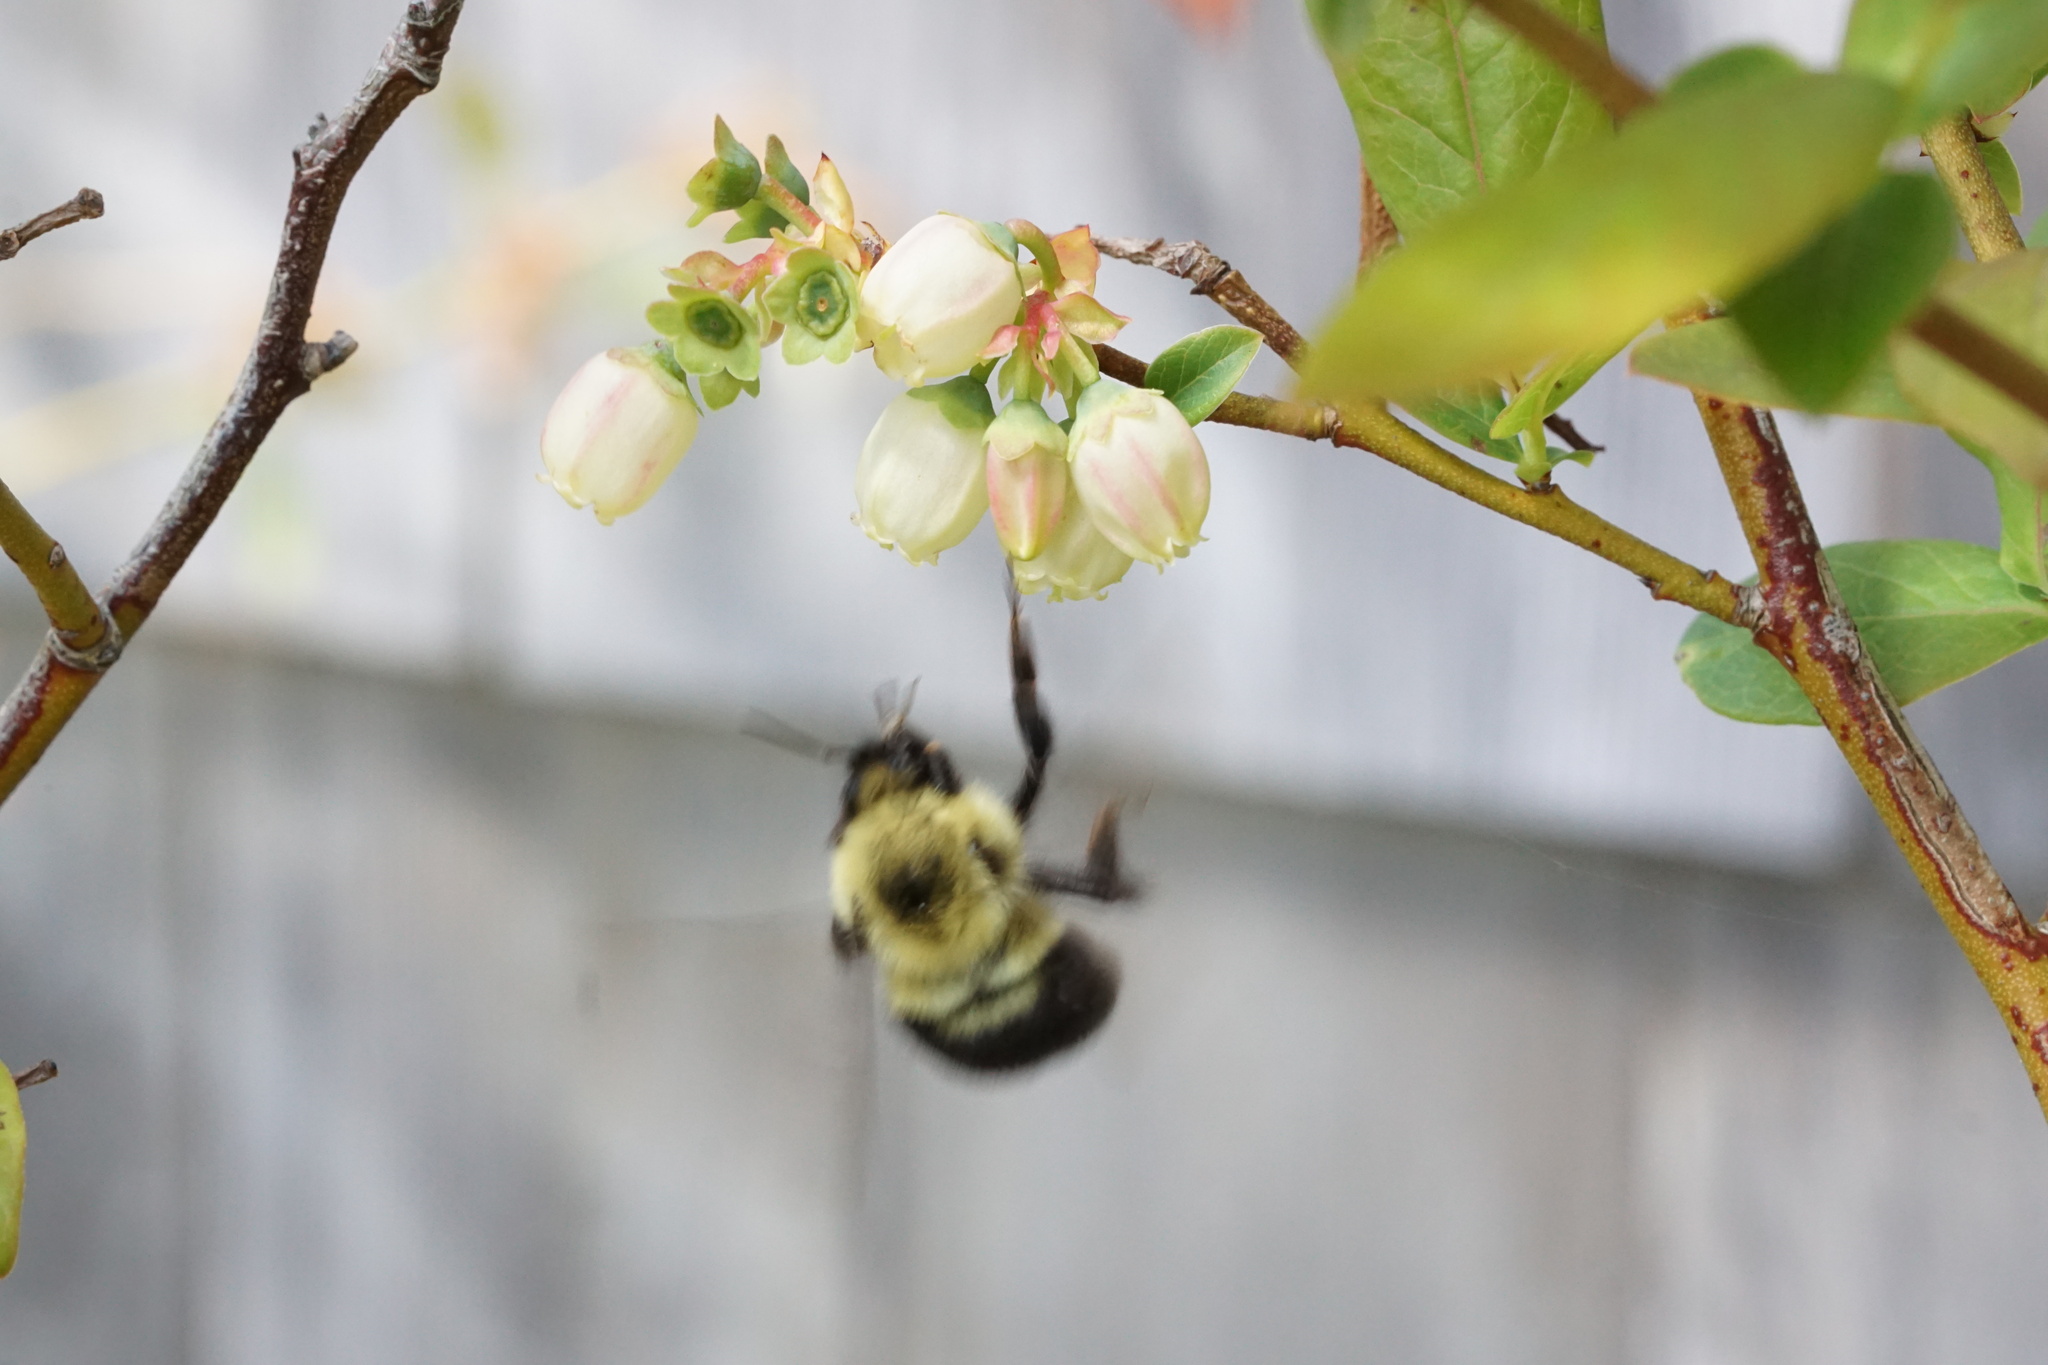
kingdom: Animalia
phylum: Arthropoda
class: Insecta
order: Hymenoptera
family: Apidae
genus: Bombus
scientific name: Bombus bimaculatus
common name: Two-spotted bumble bee
